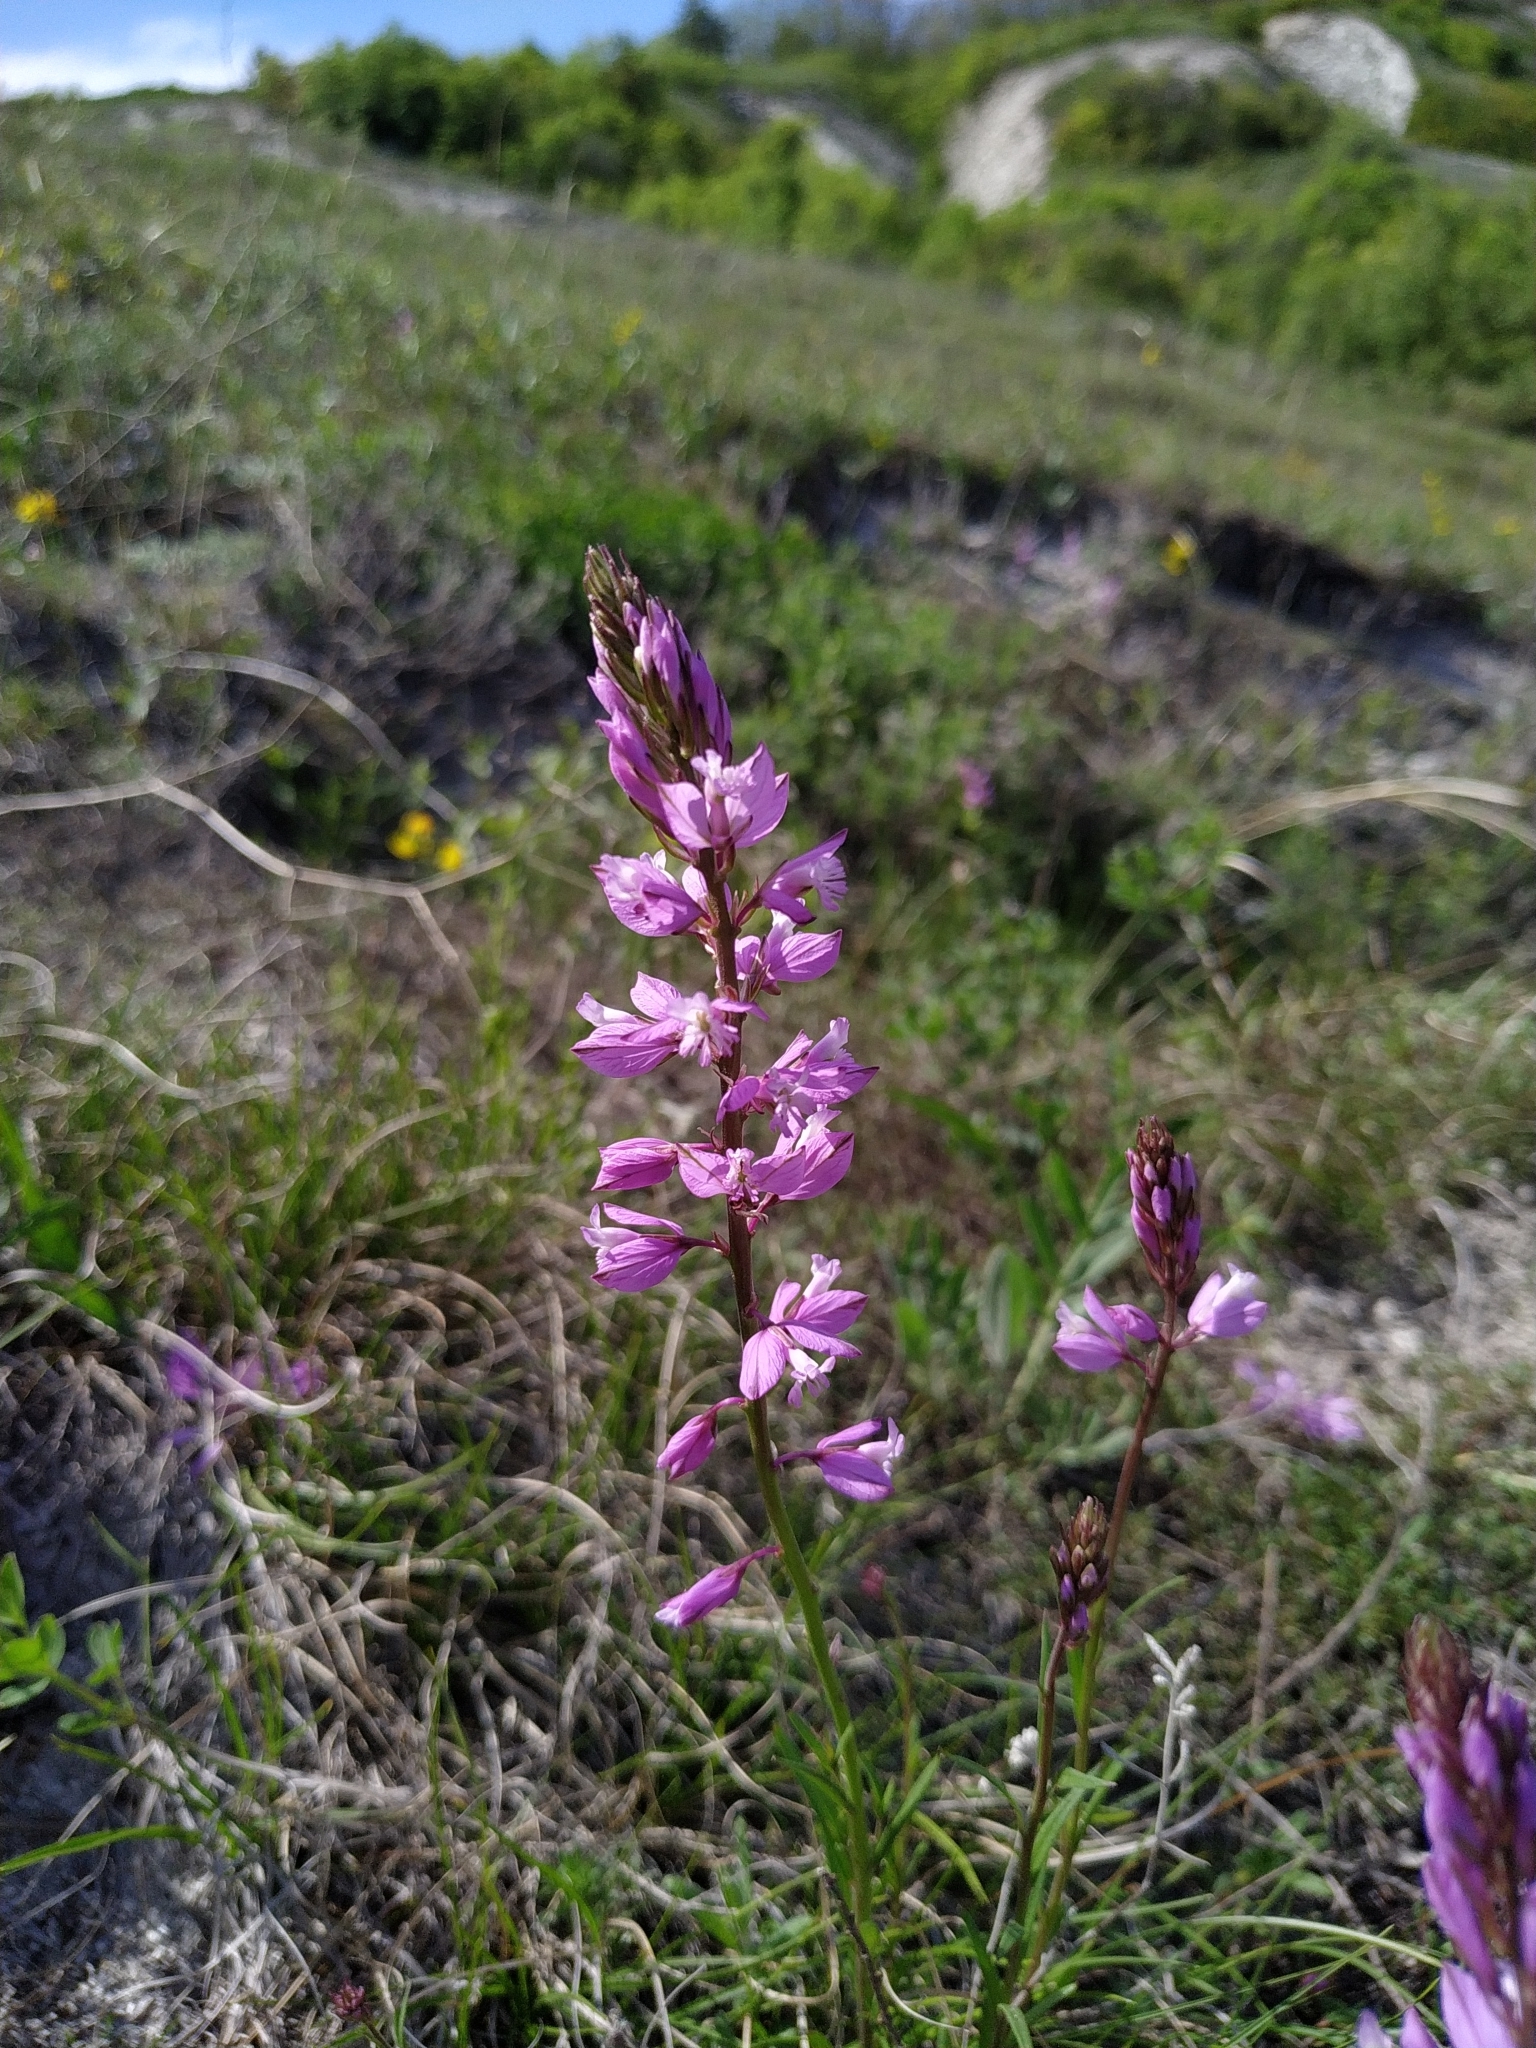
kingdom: Plantae
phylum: Tracheophyta
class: Magnoliopsida
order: Fabales
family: Polygalaceae
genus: Polygala
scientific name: Polygala nicaeensis
